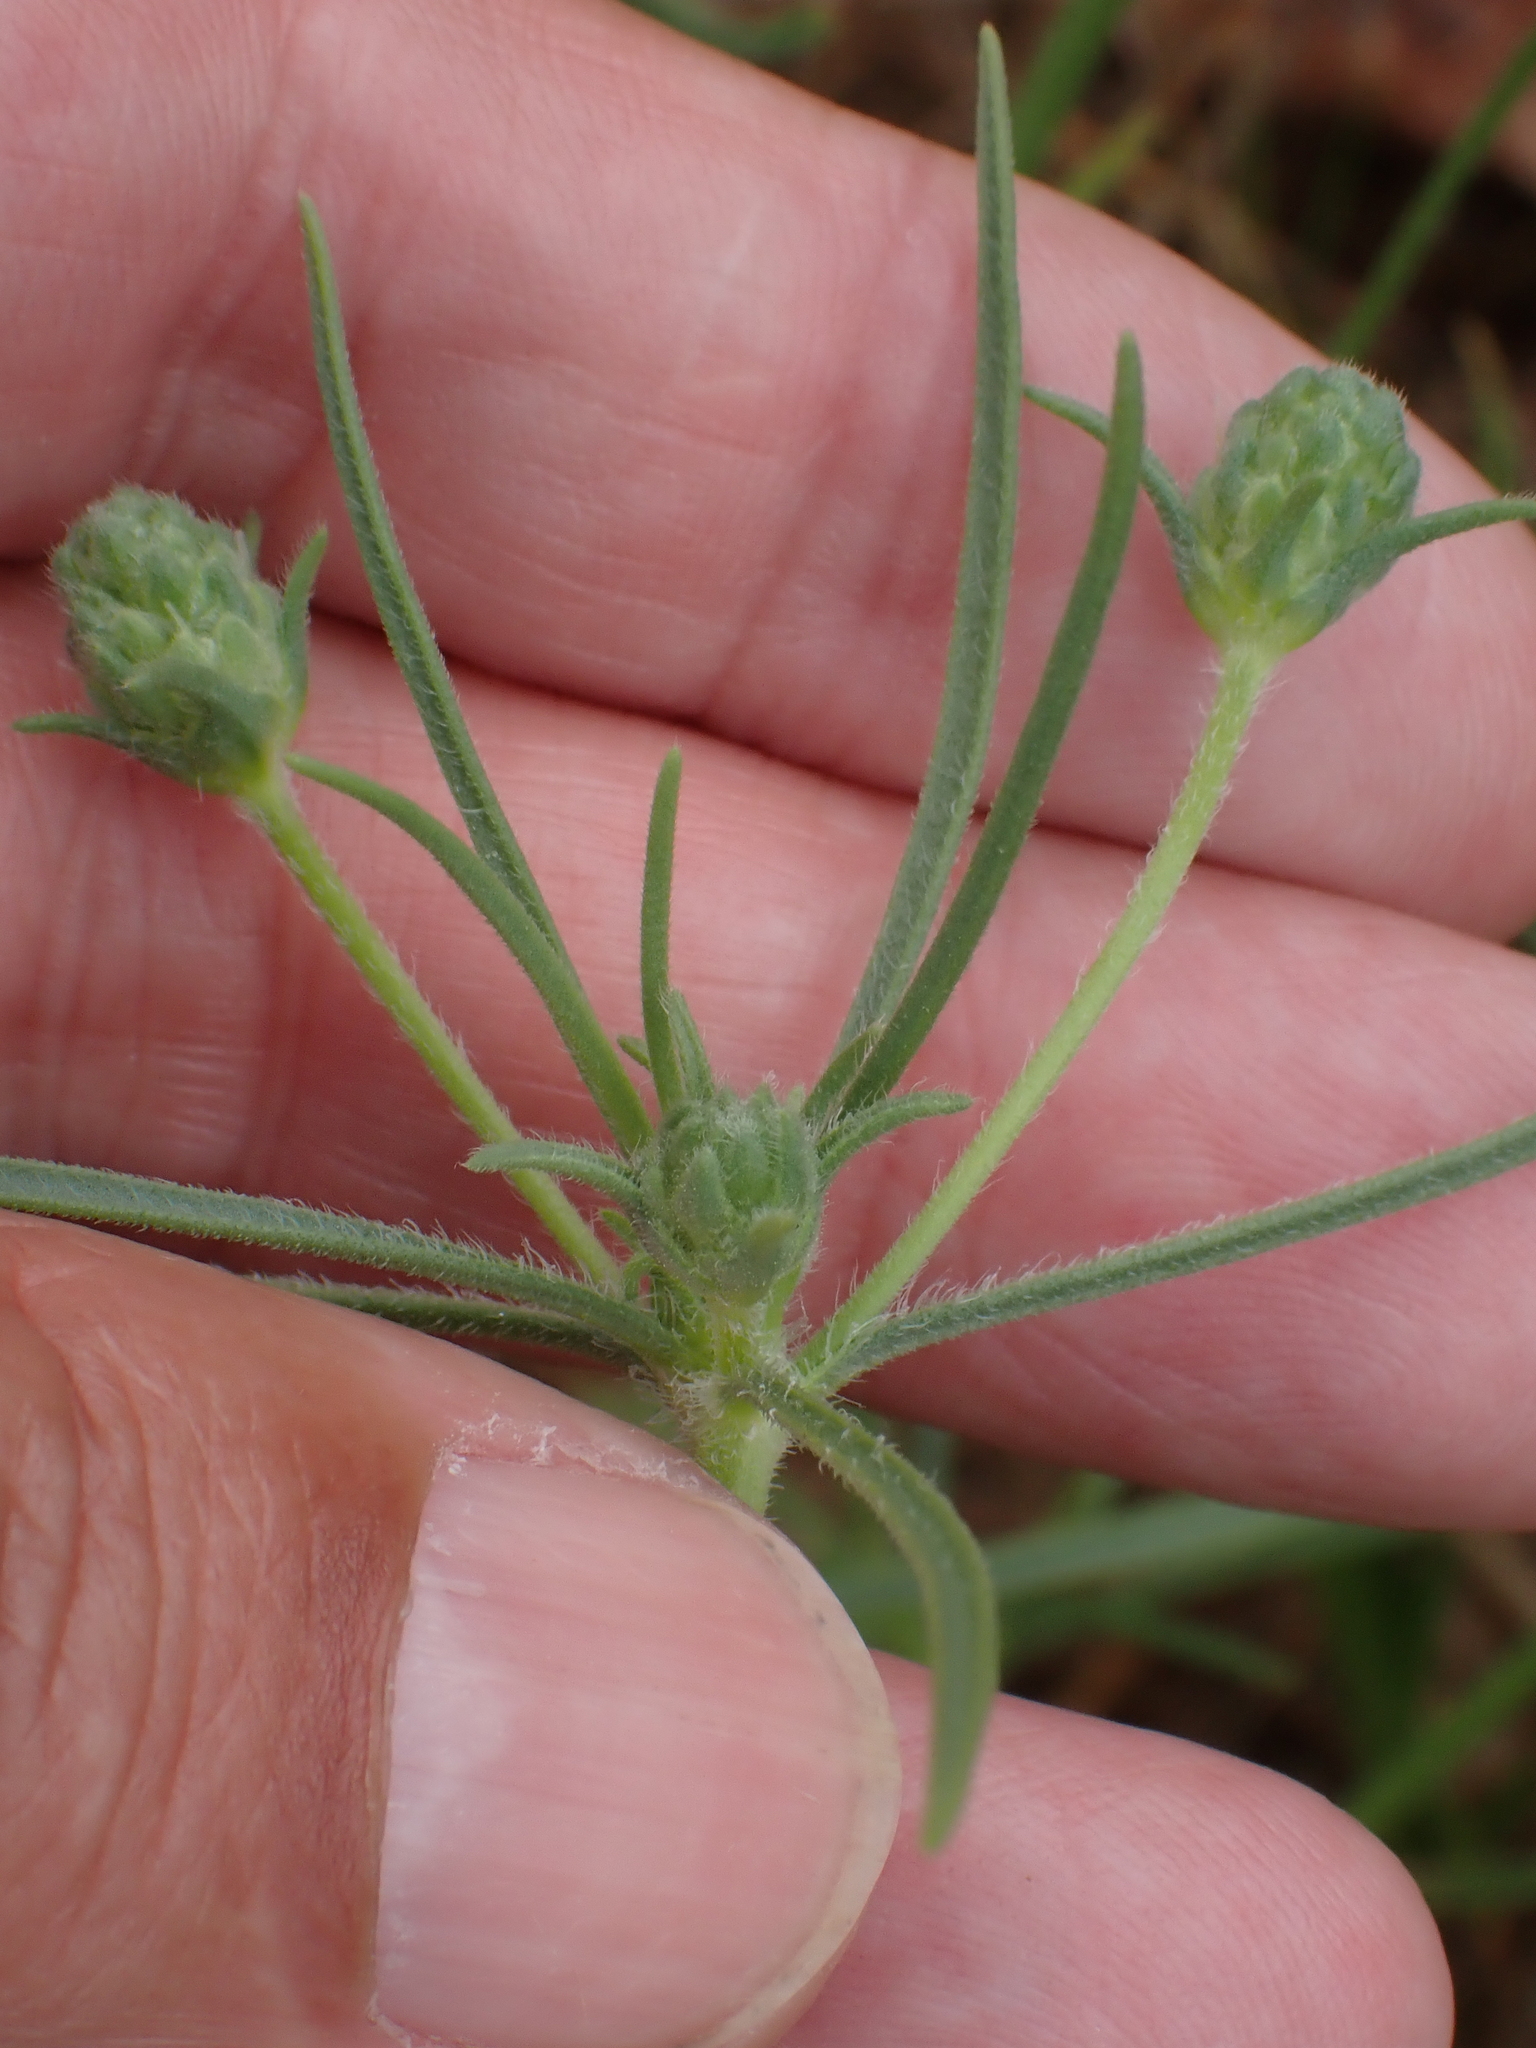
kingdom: Plantae
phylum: Tracheophyta
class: Magnoliopsida
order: Lamiales
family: Plantaginaceae
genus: Plantago
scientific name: Plantago arenaria
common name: Branched plantain
